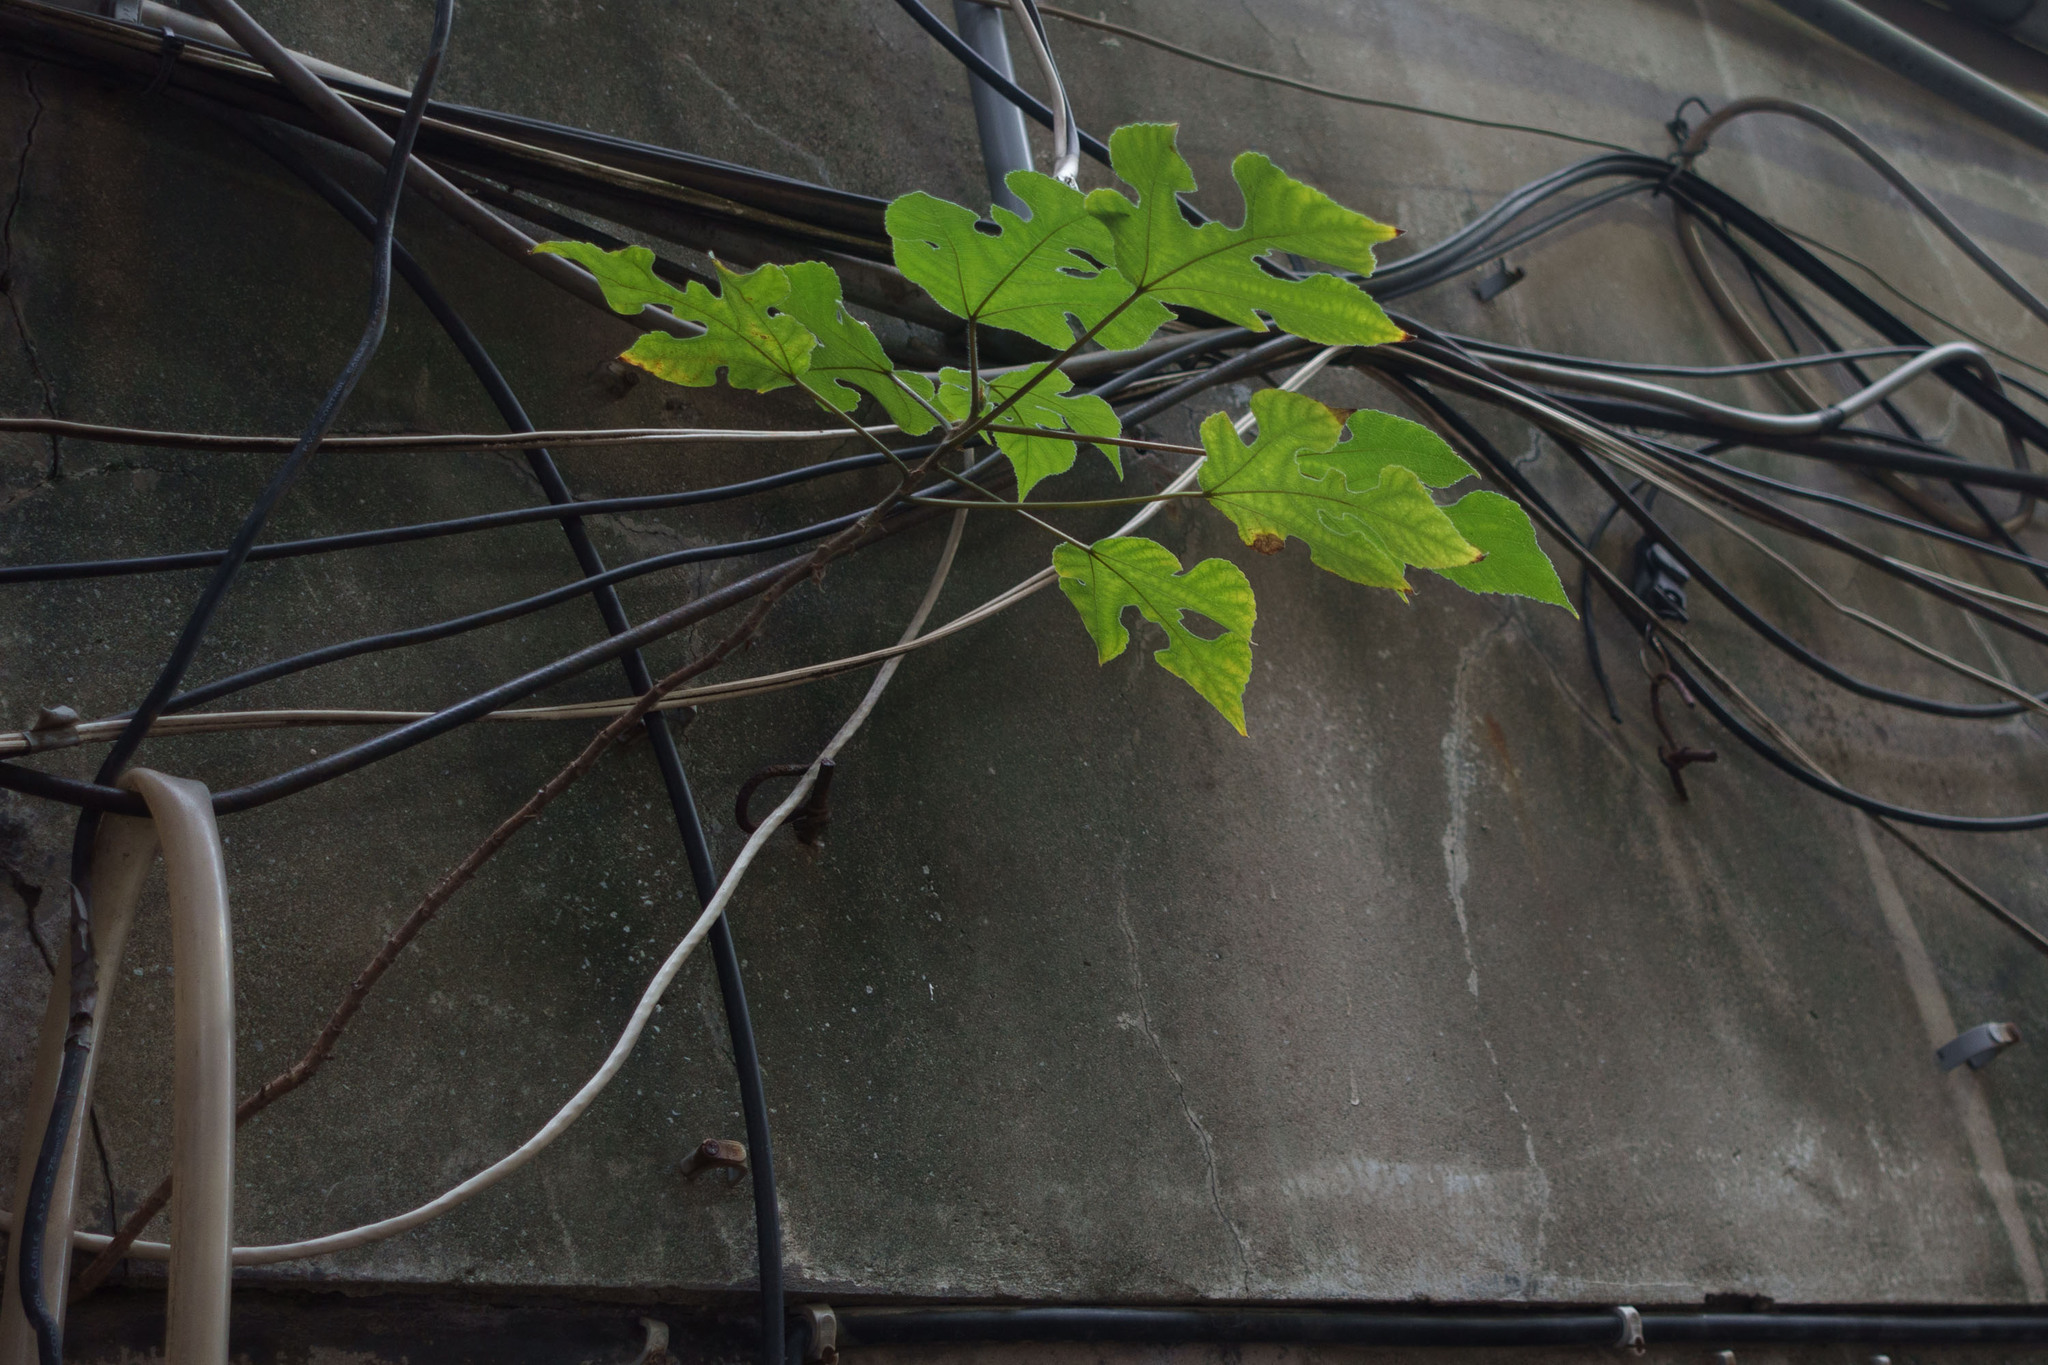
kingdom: Plantae
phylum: Tracheophyta
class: Magnoliopsida
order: Rosales
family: Moraceae
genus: Broussonetia
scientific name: Broussonetia papyrifera
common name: Paper mulberry
